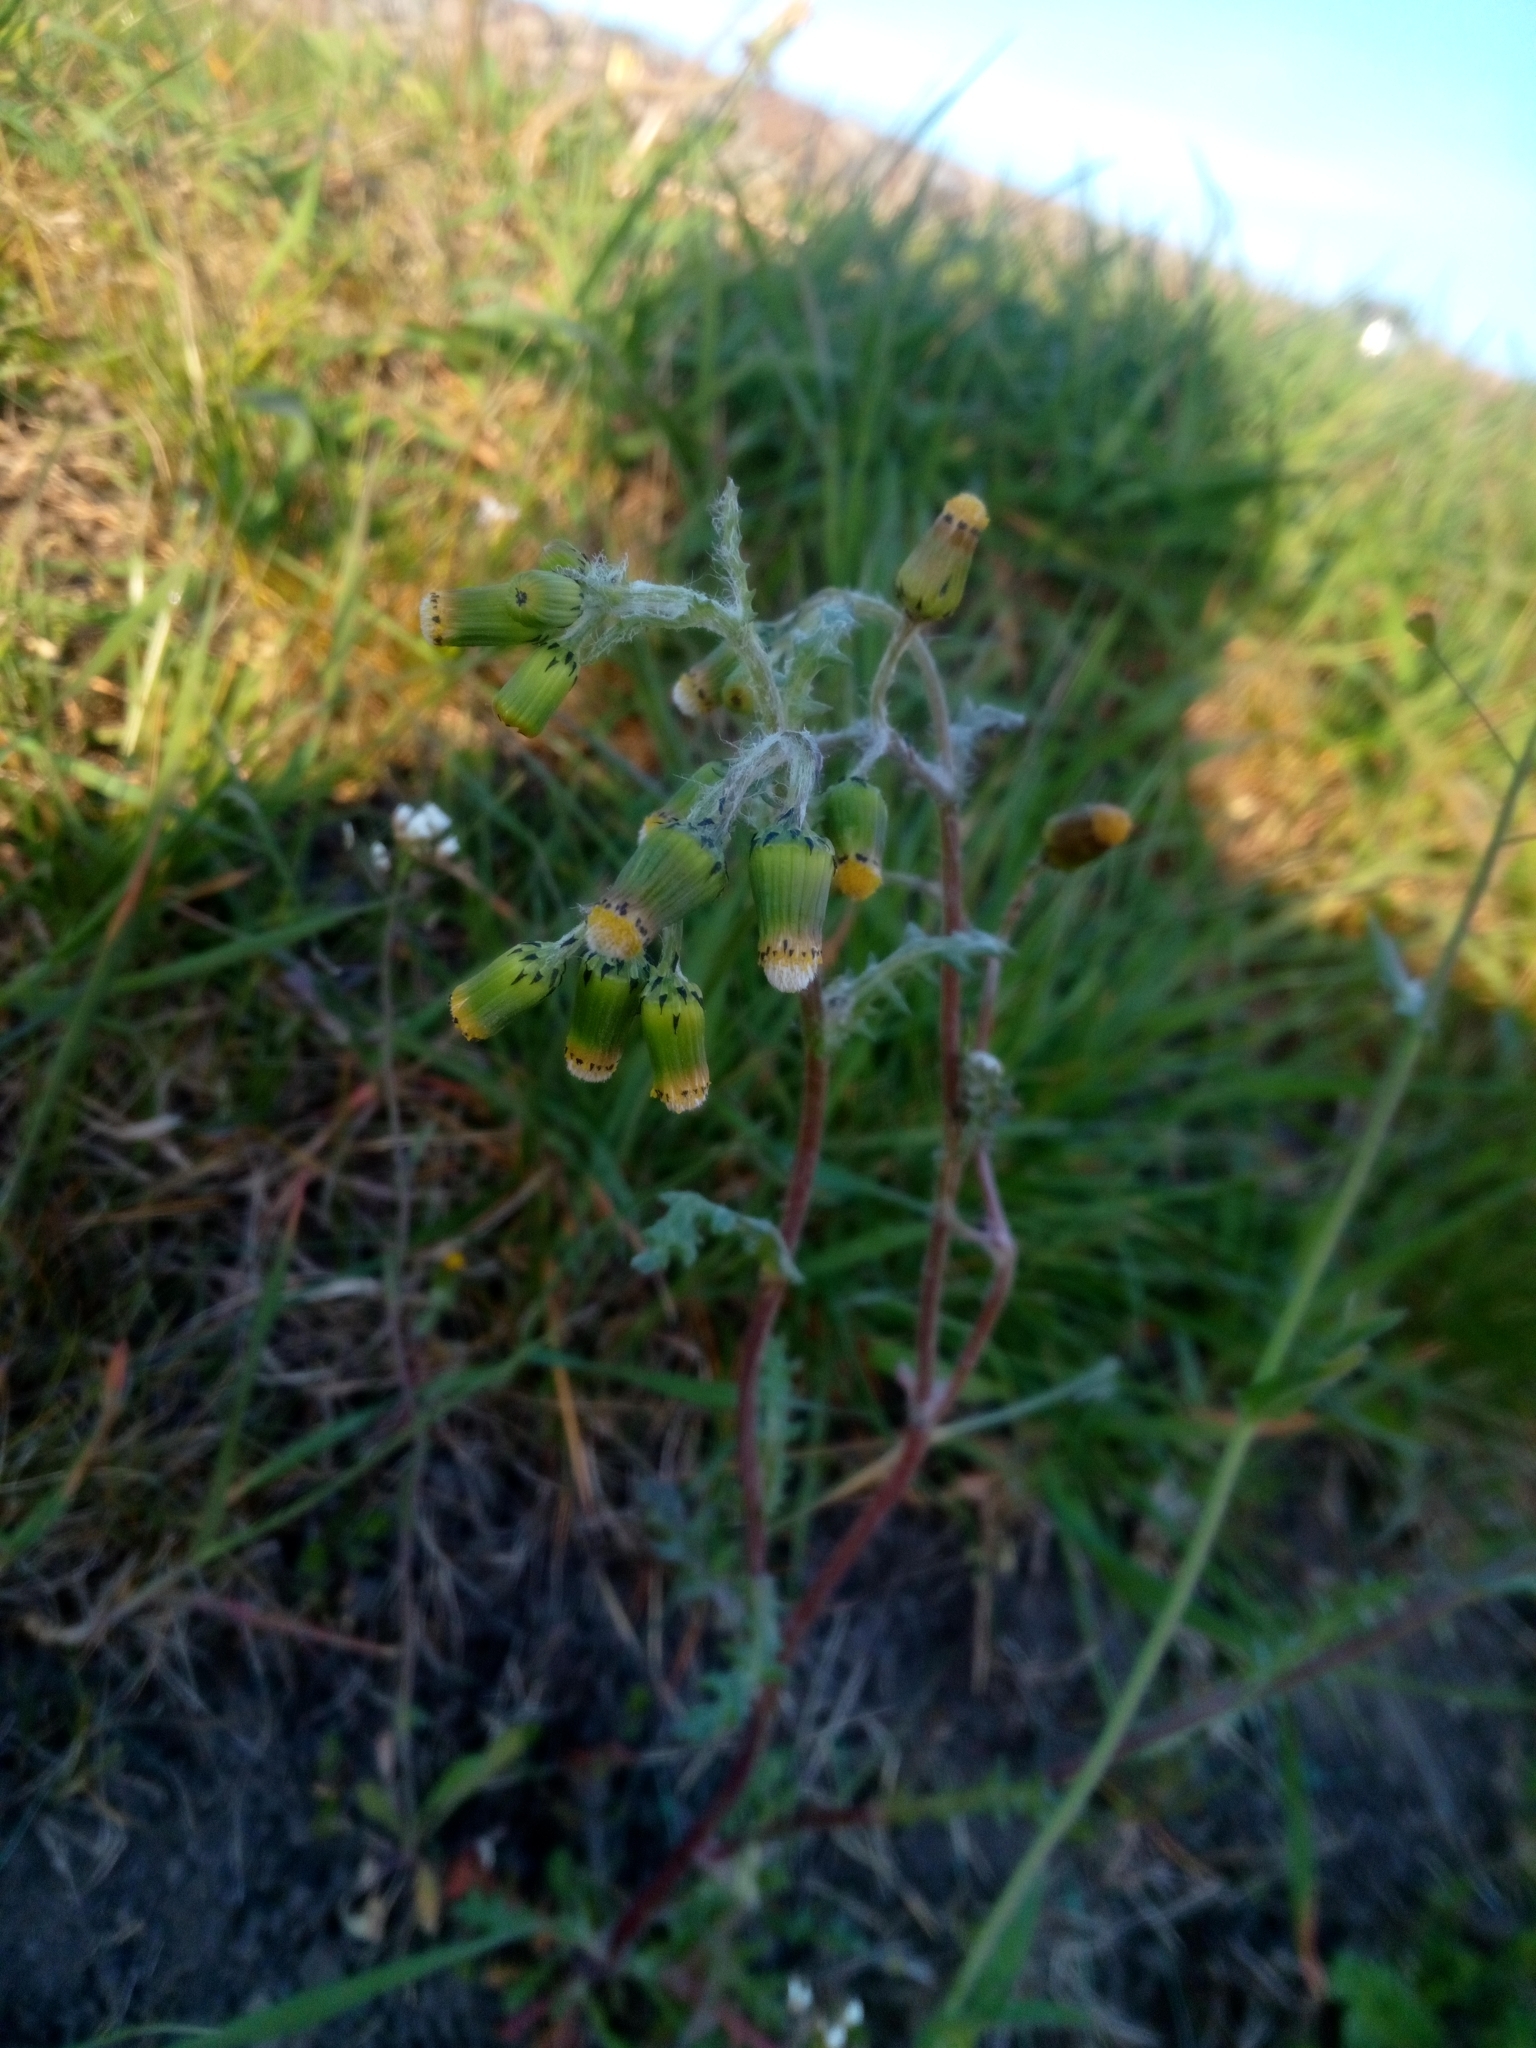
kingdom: Plantae
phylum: Tracheophyta
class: Magnoliopsida
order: Asterales
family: Asteraceae
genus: Senecio
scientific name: Senecio vulgaris
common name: Old-man-in-the-spring
